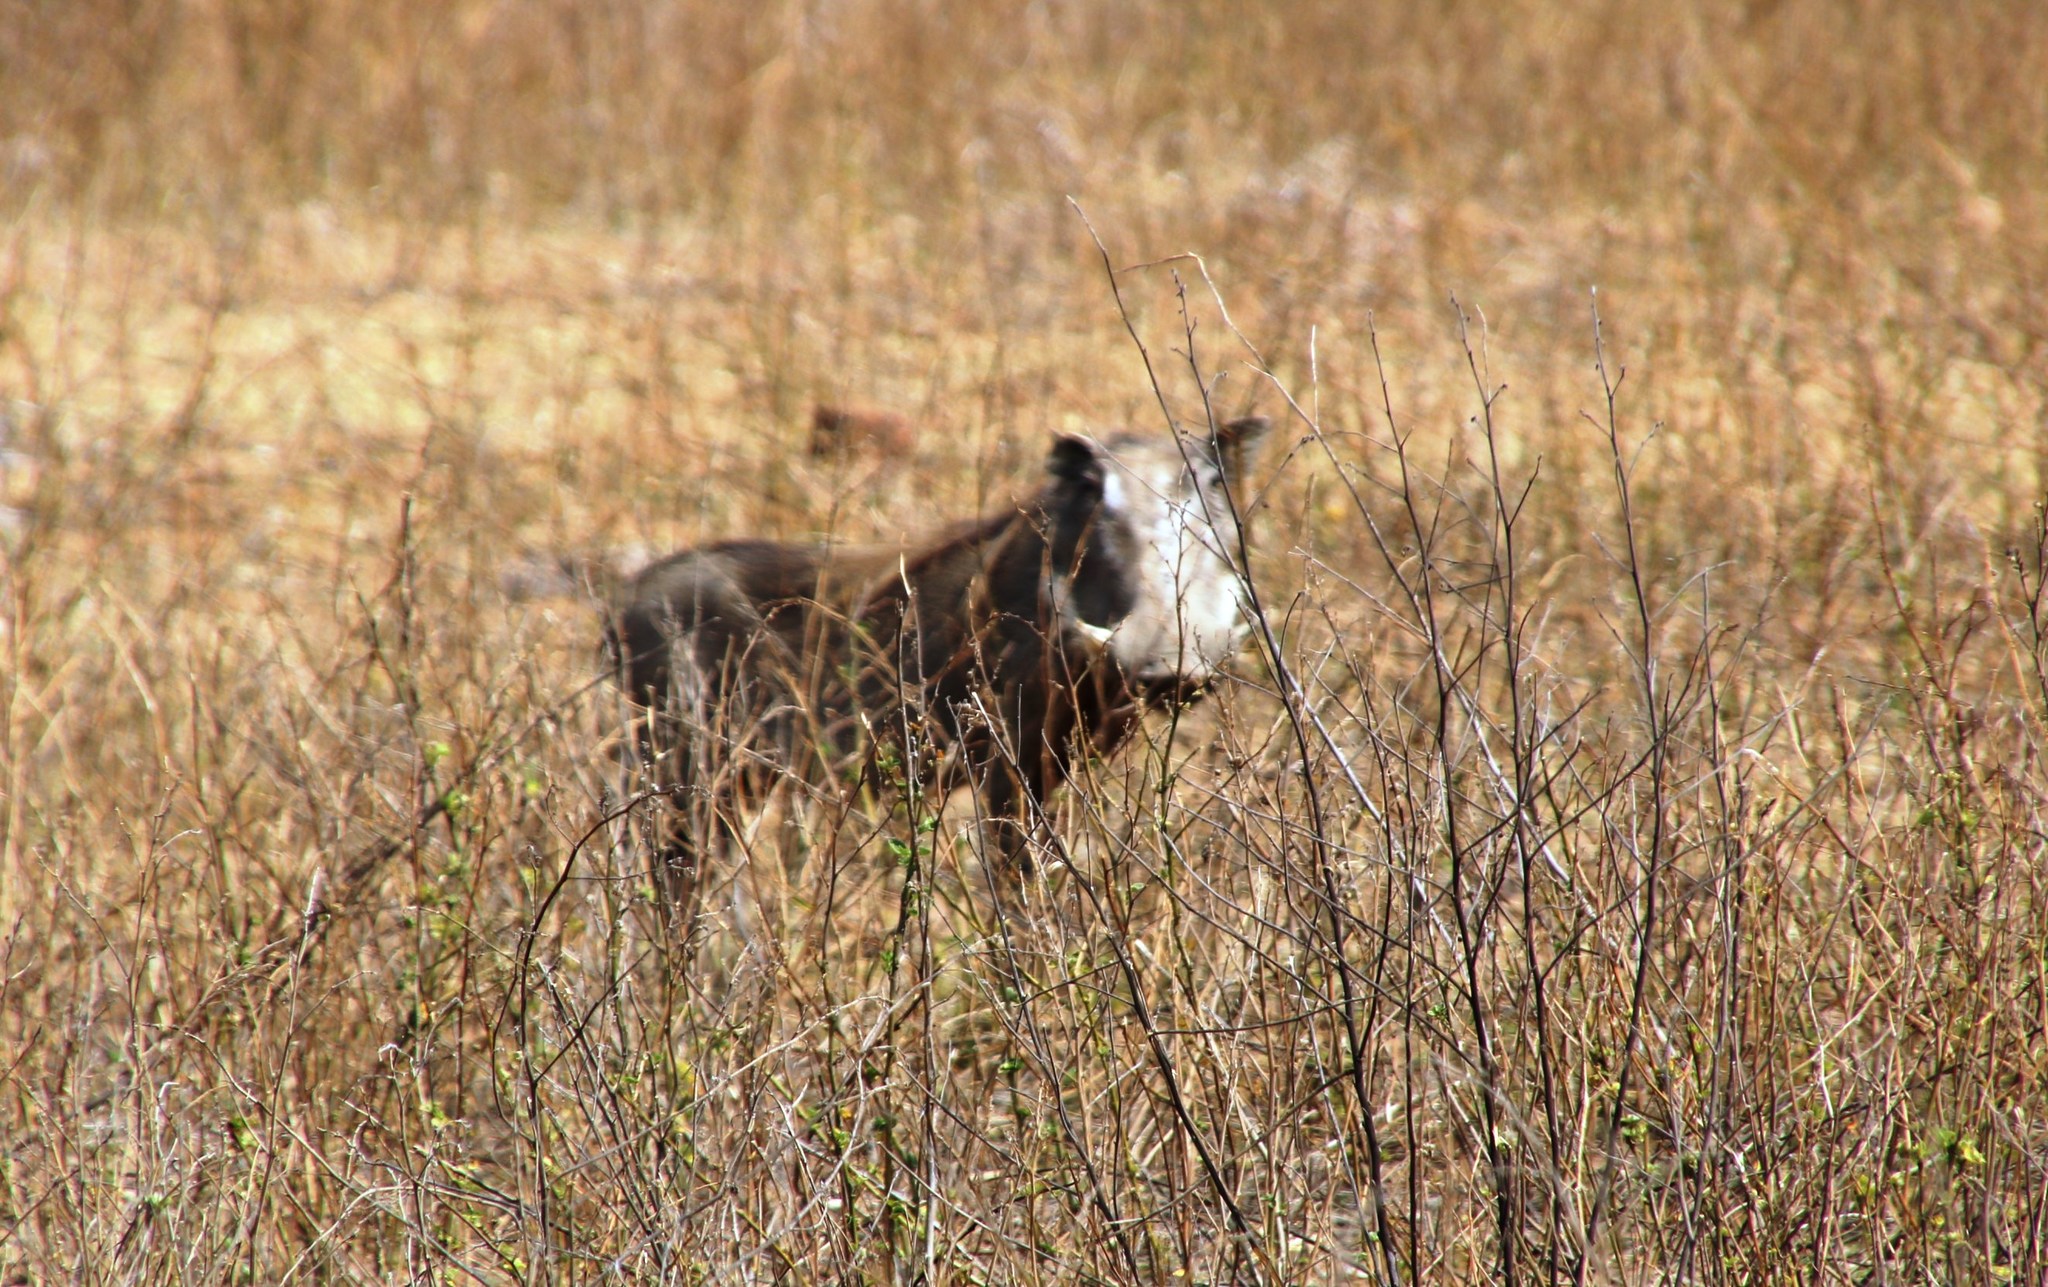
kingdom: Animalia
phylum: Chordata
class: Mammalia
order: Artiodactyla
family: Suidae
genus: Phacochoerus
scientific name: Phacochoerus africanus
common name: Common warthog
